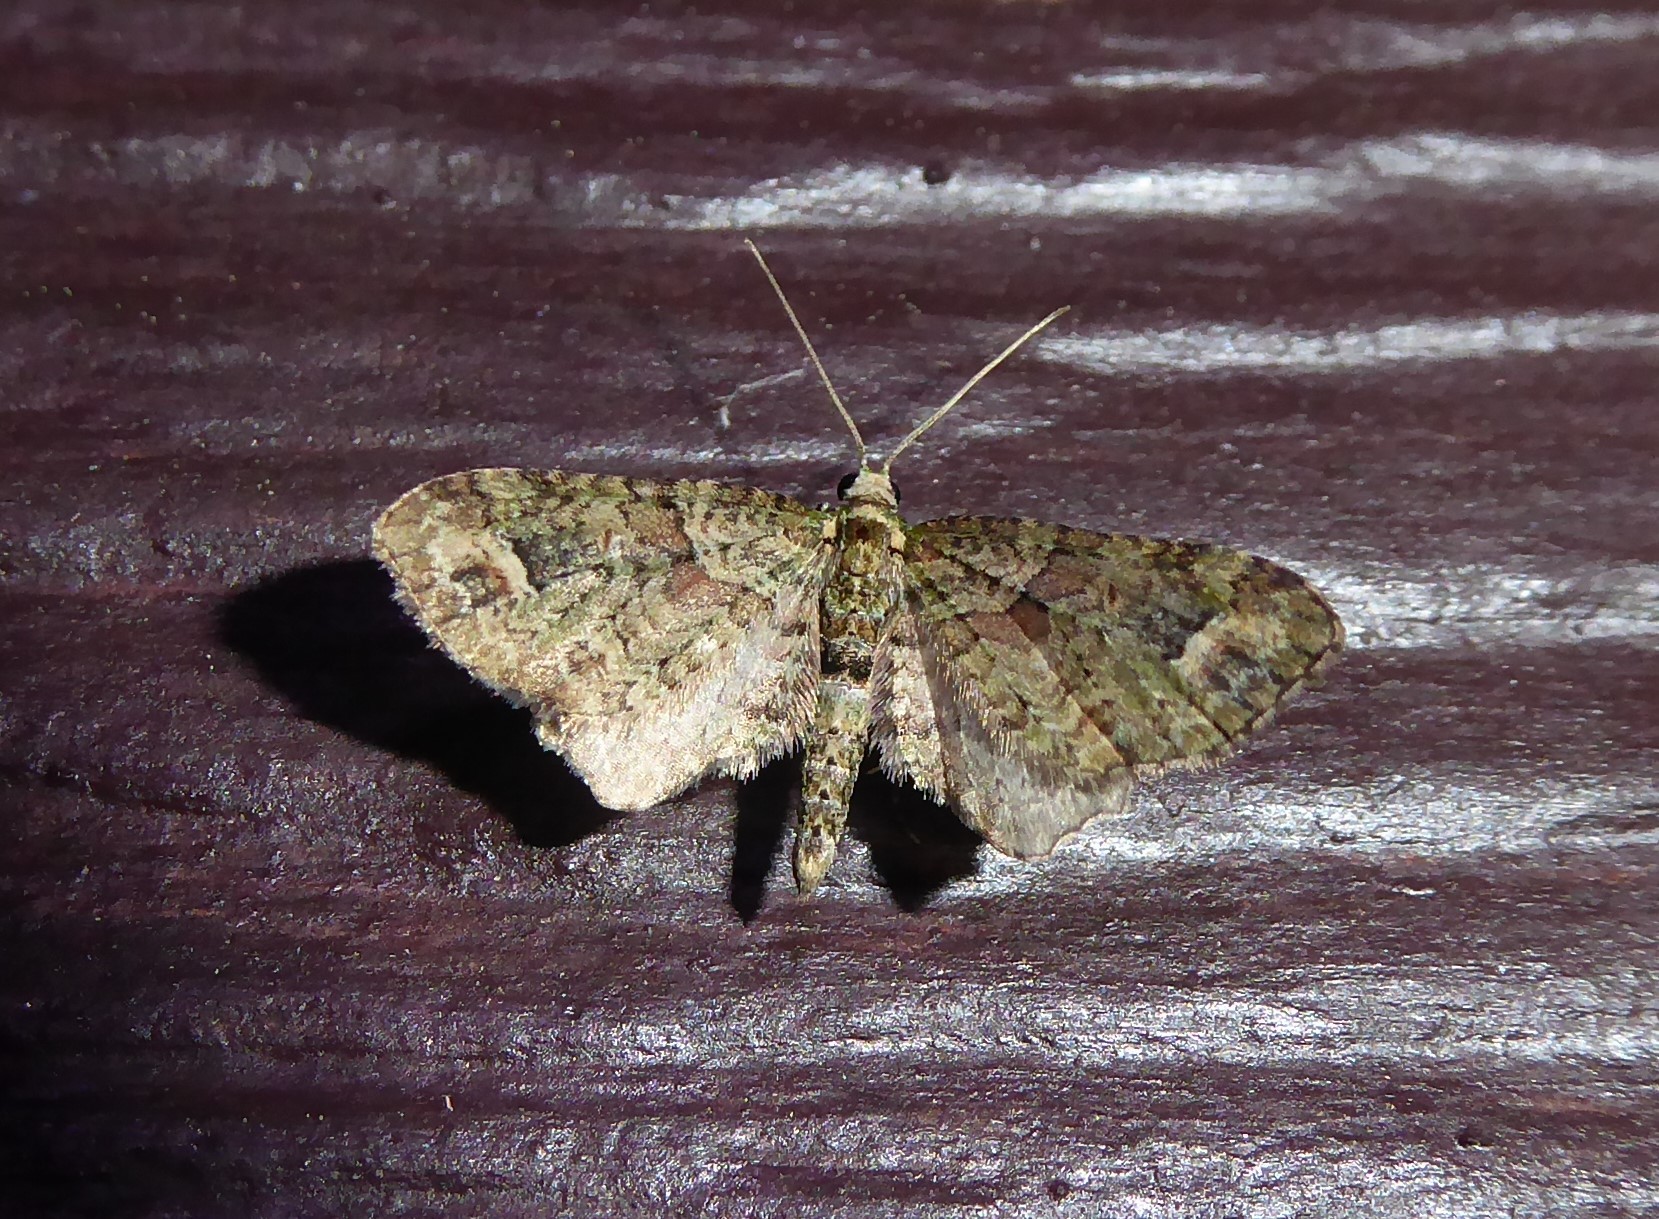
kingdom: Animalia
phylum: Arthropoda
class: Insecta
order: Lepidoptera
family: Geometridae
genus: Idaea
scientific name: Idaea mutanda
